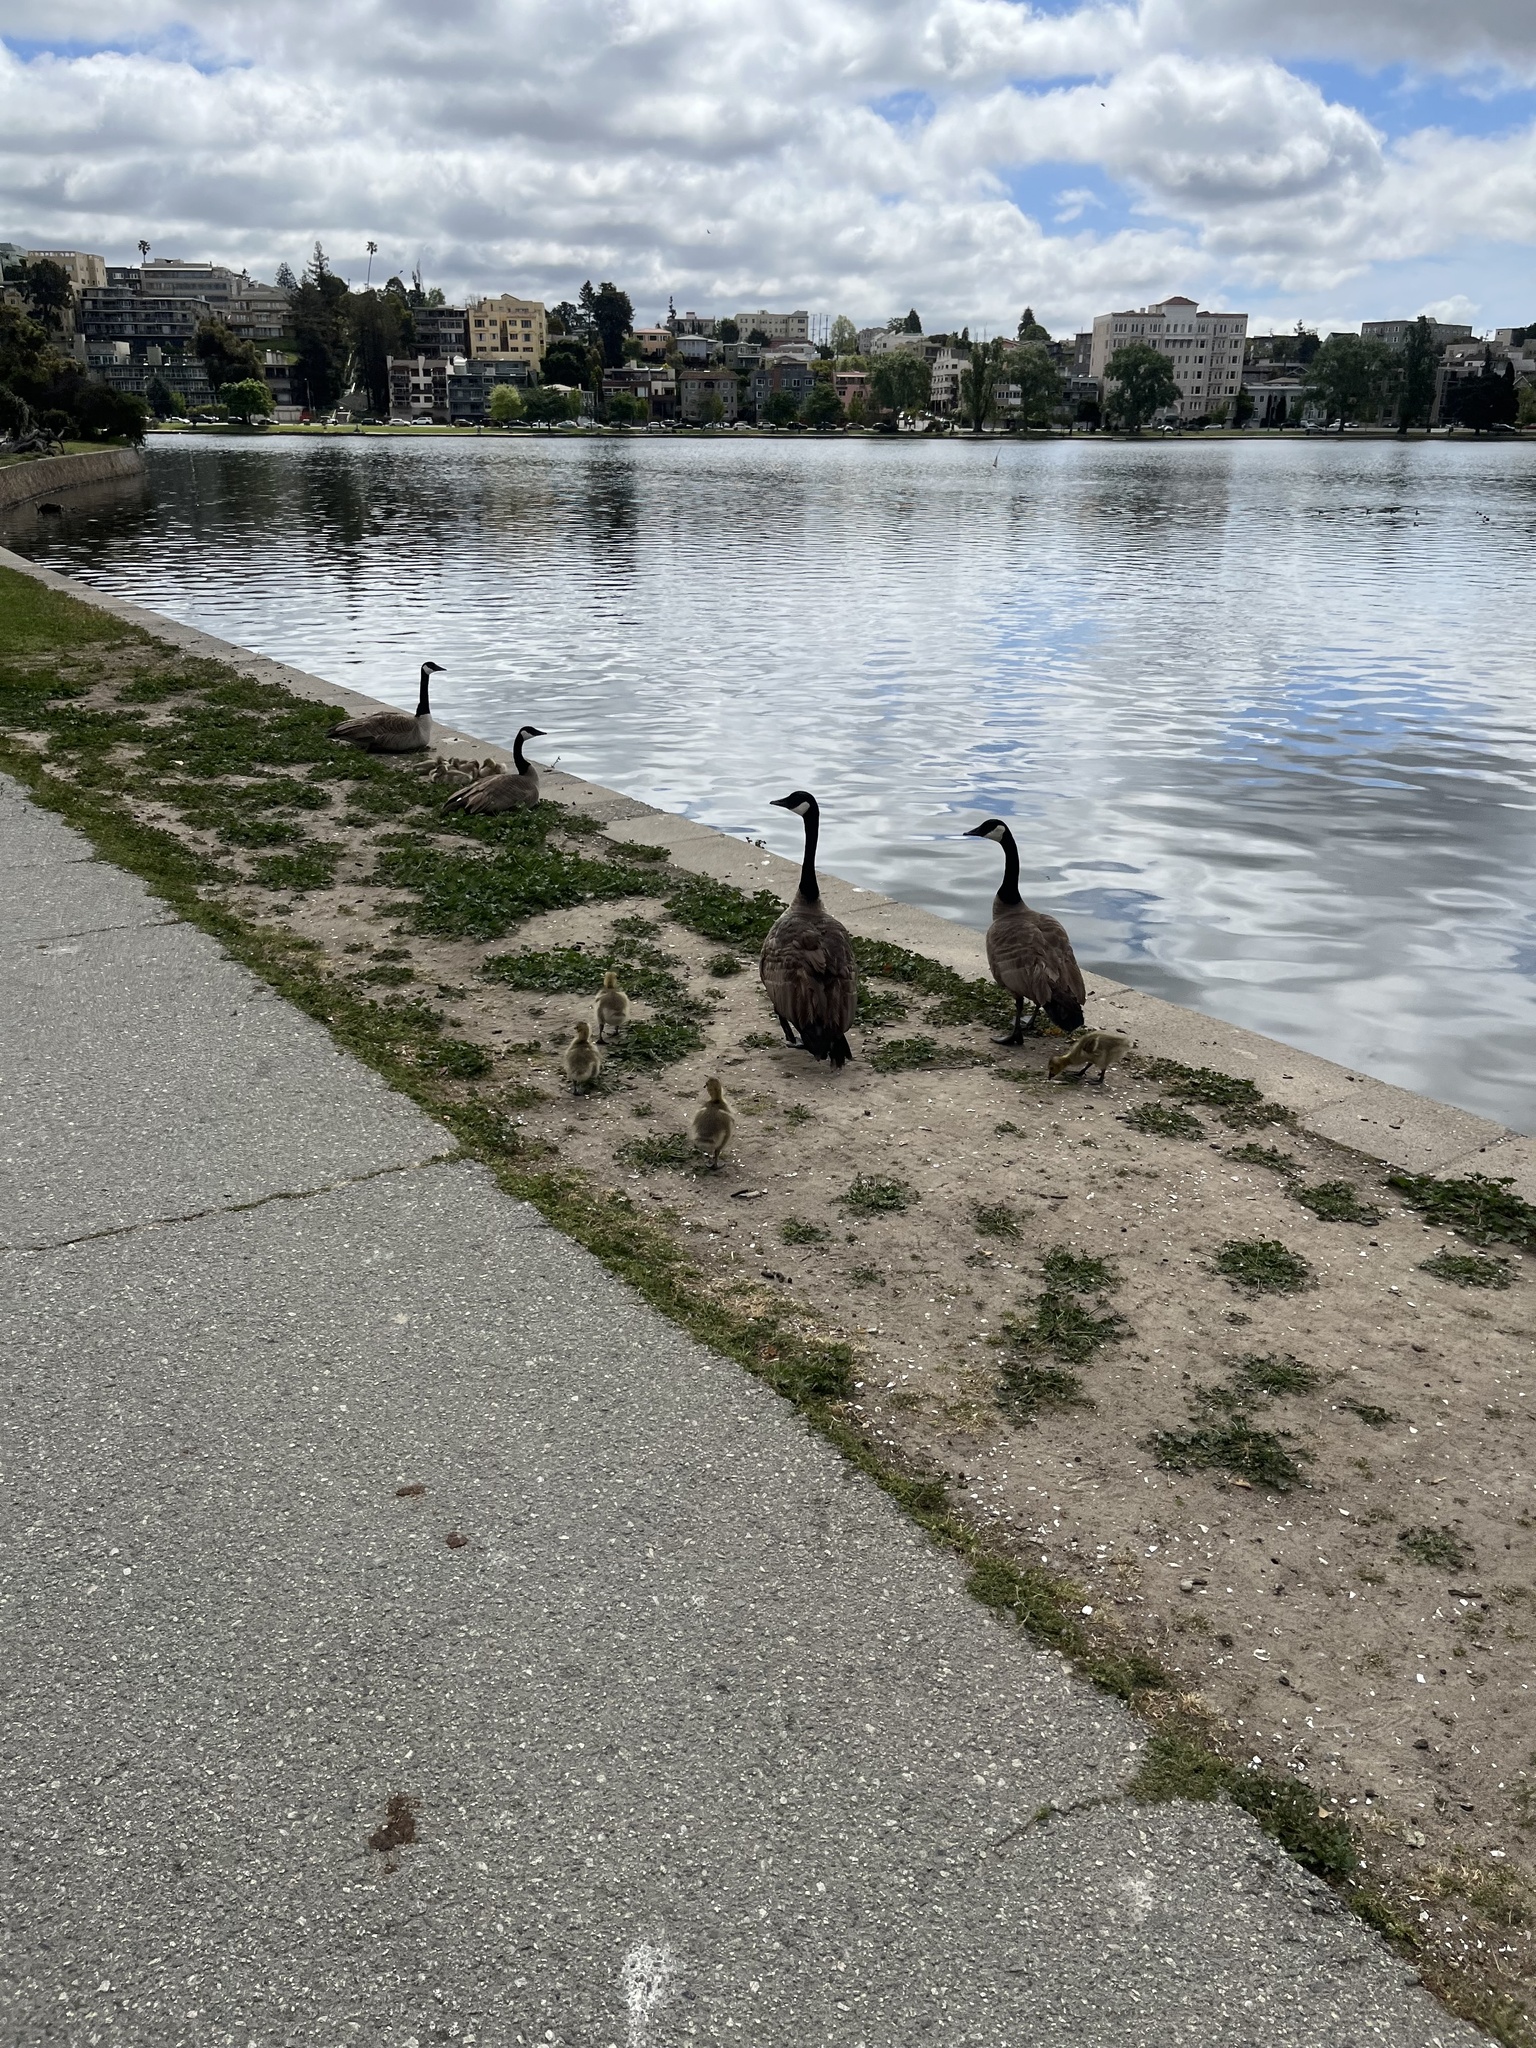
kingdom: Animalia
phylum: Chordata
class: Aves
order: Anseriformes
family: Anatidae
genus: Branta
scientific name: Branta canadensis
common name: Canada goose
